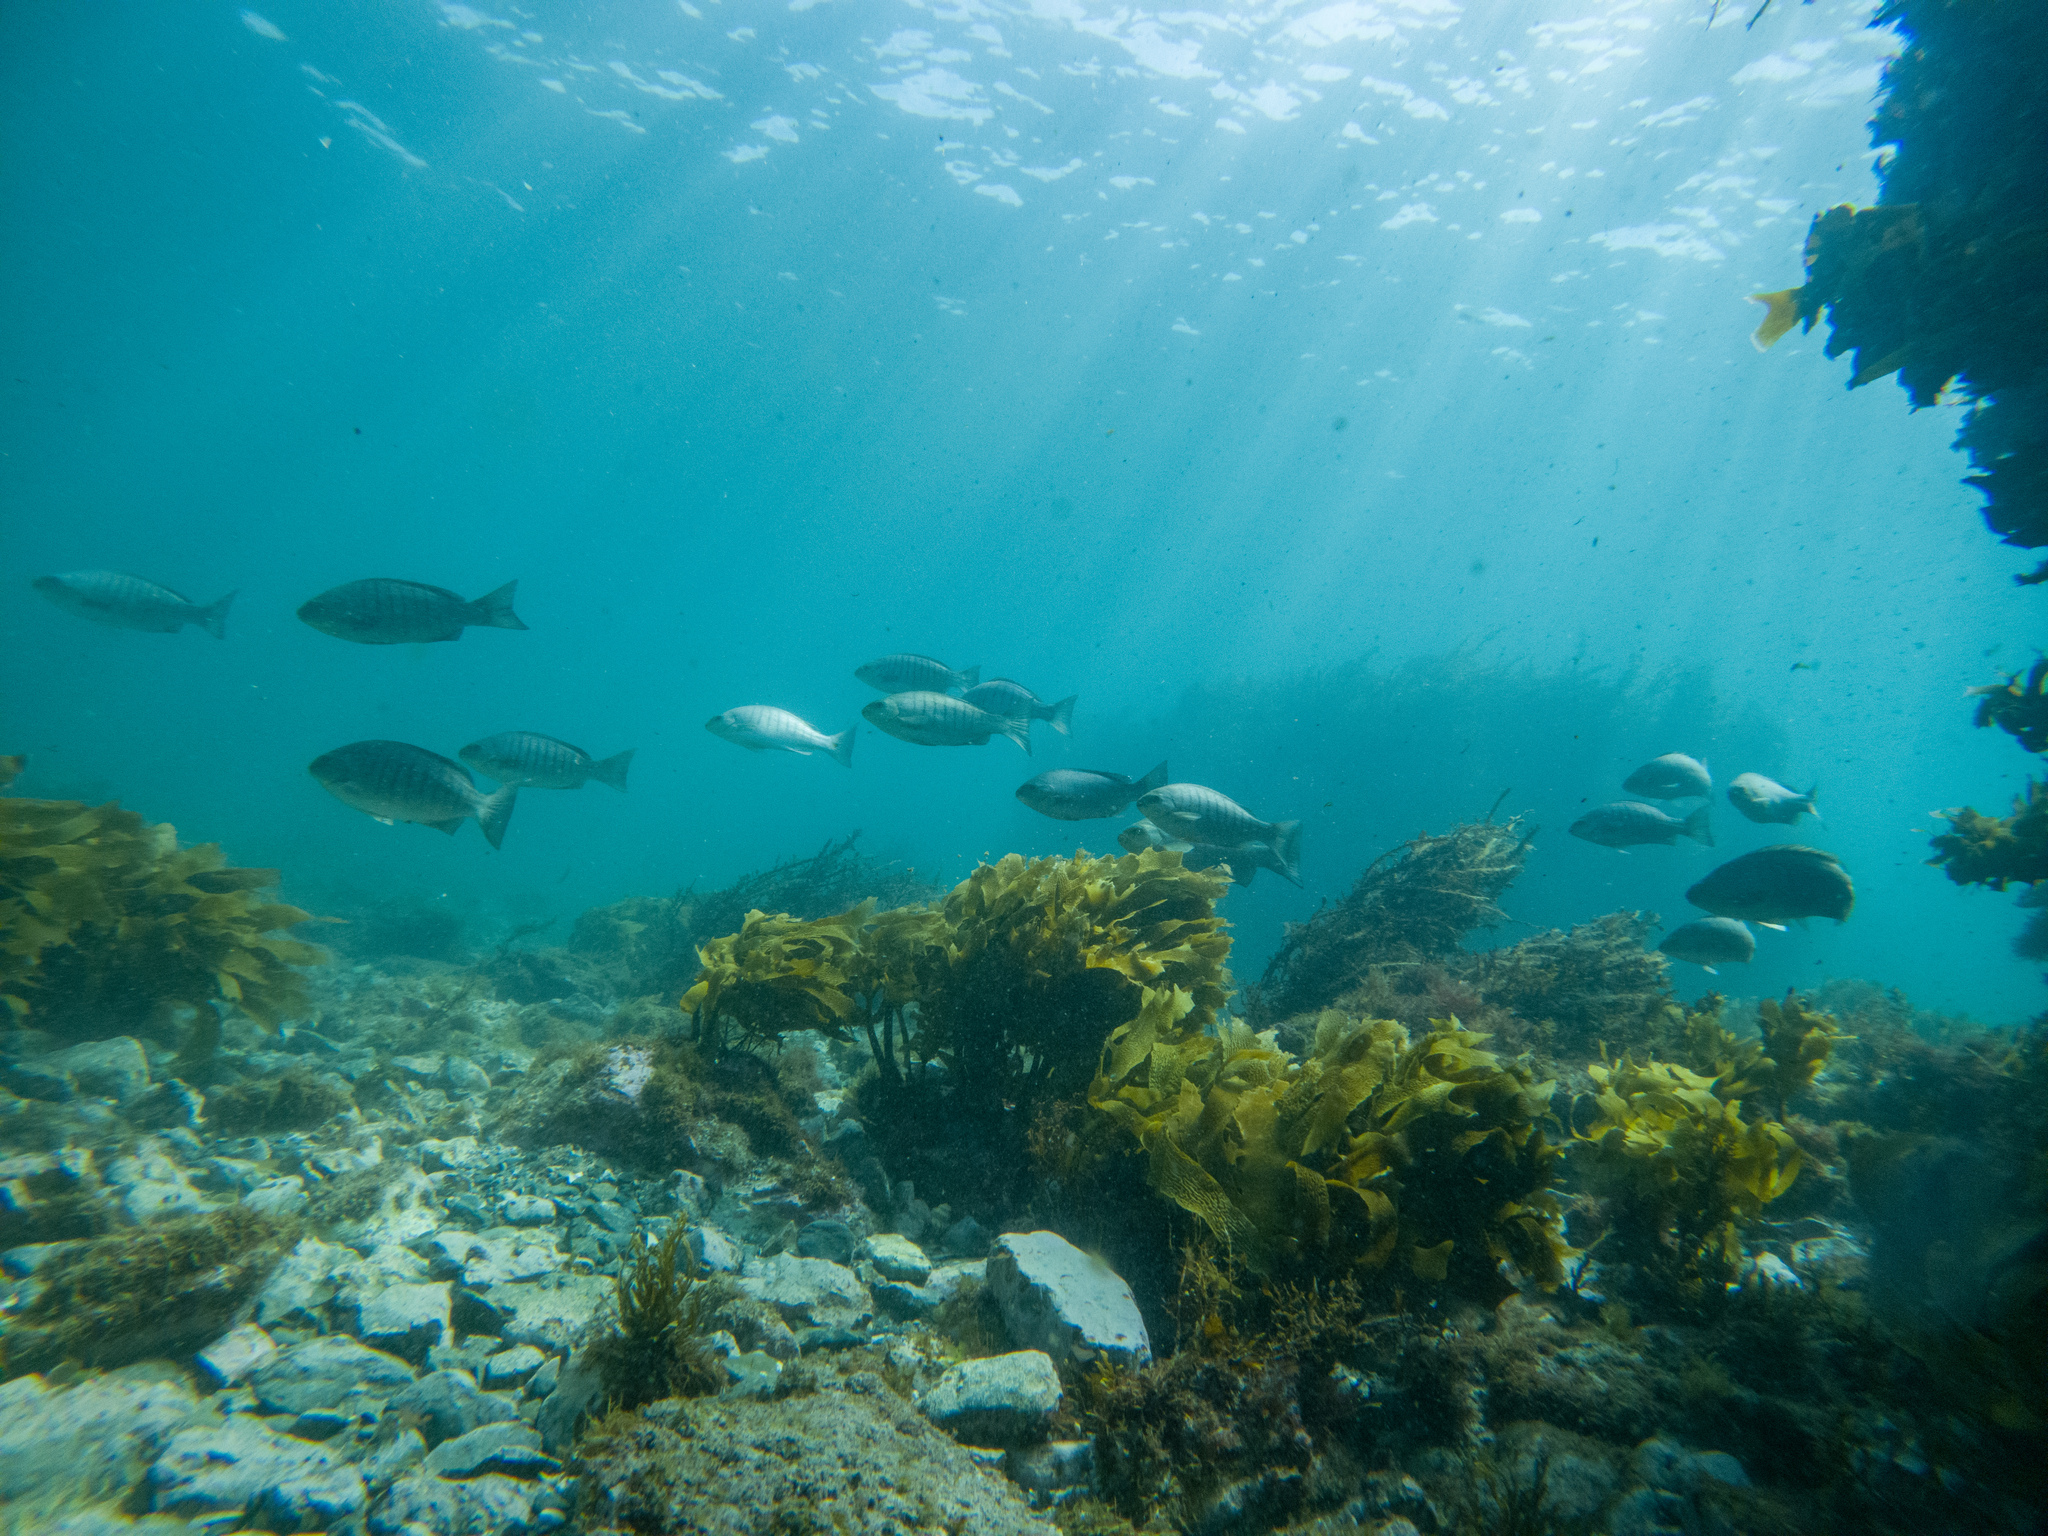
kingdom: Animalia
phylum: Chordata
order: Perciformes
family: Kyphosidae
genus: Girella
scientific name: Girella tricuspidata
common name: Parore
